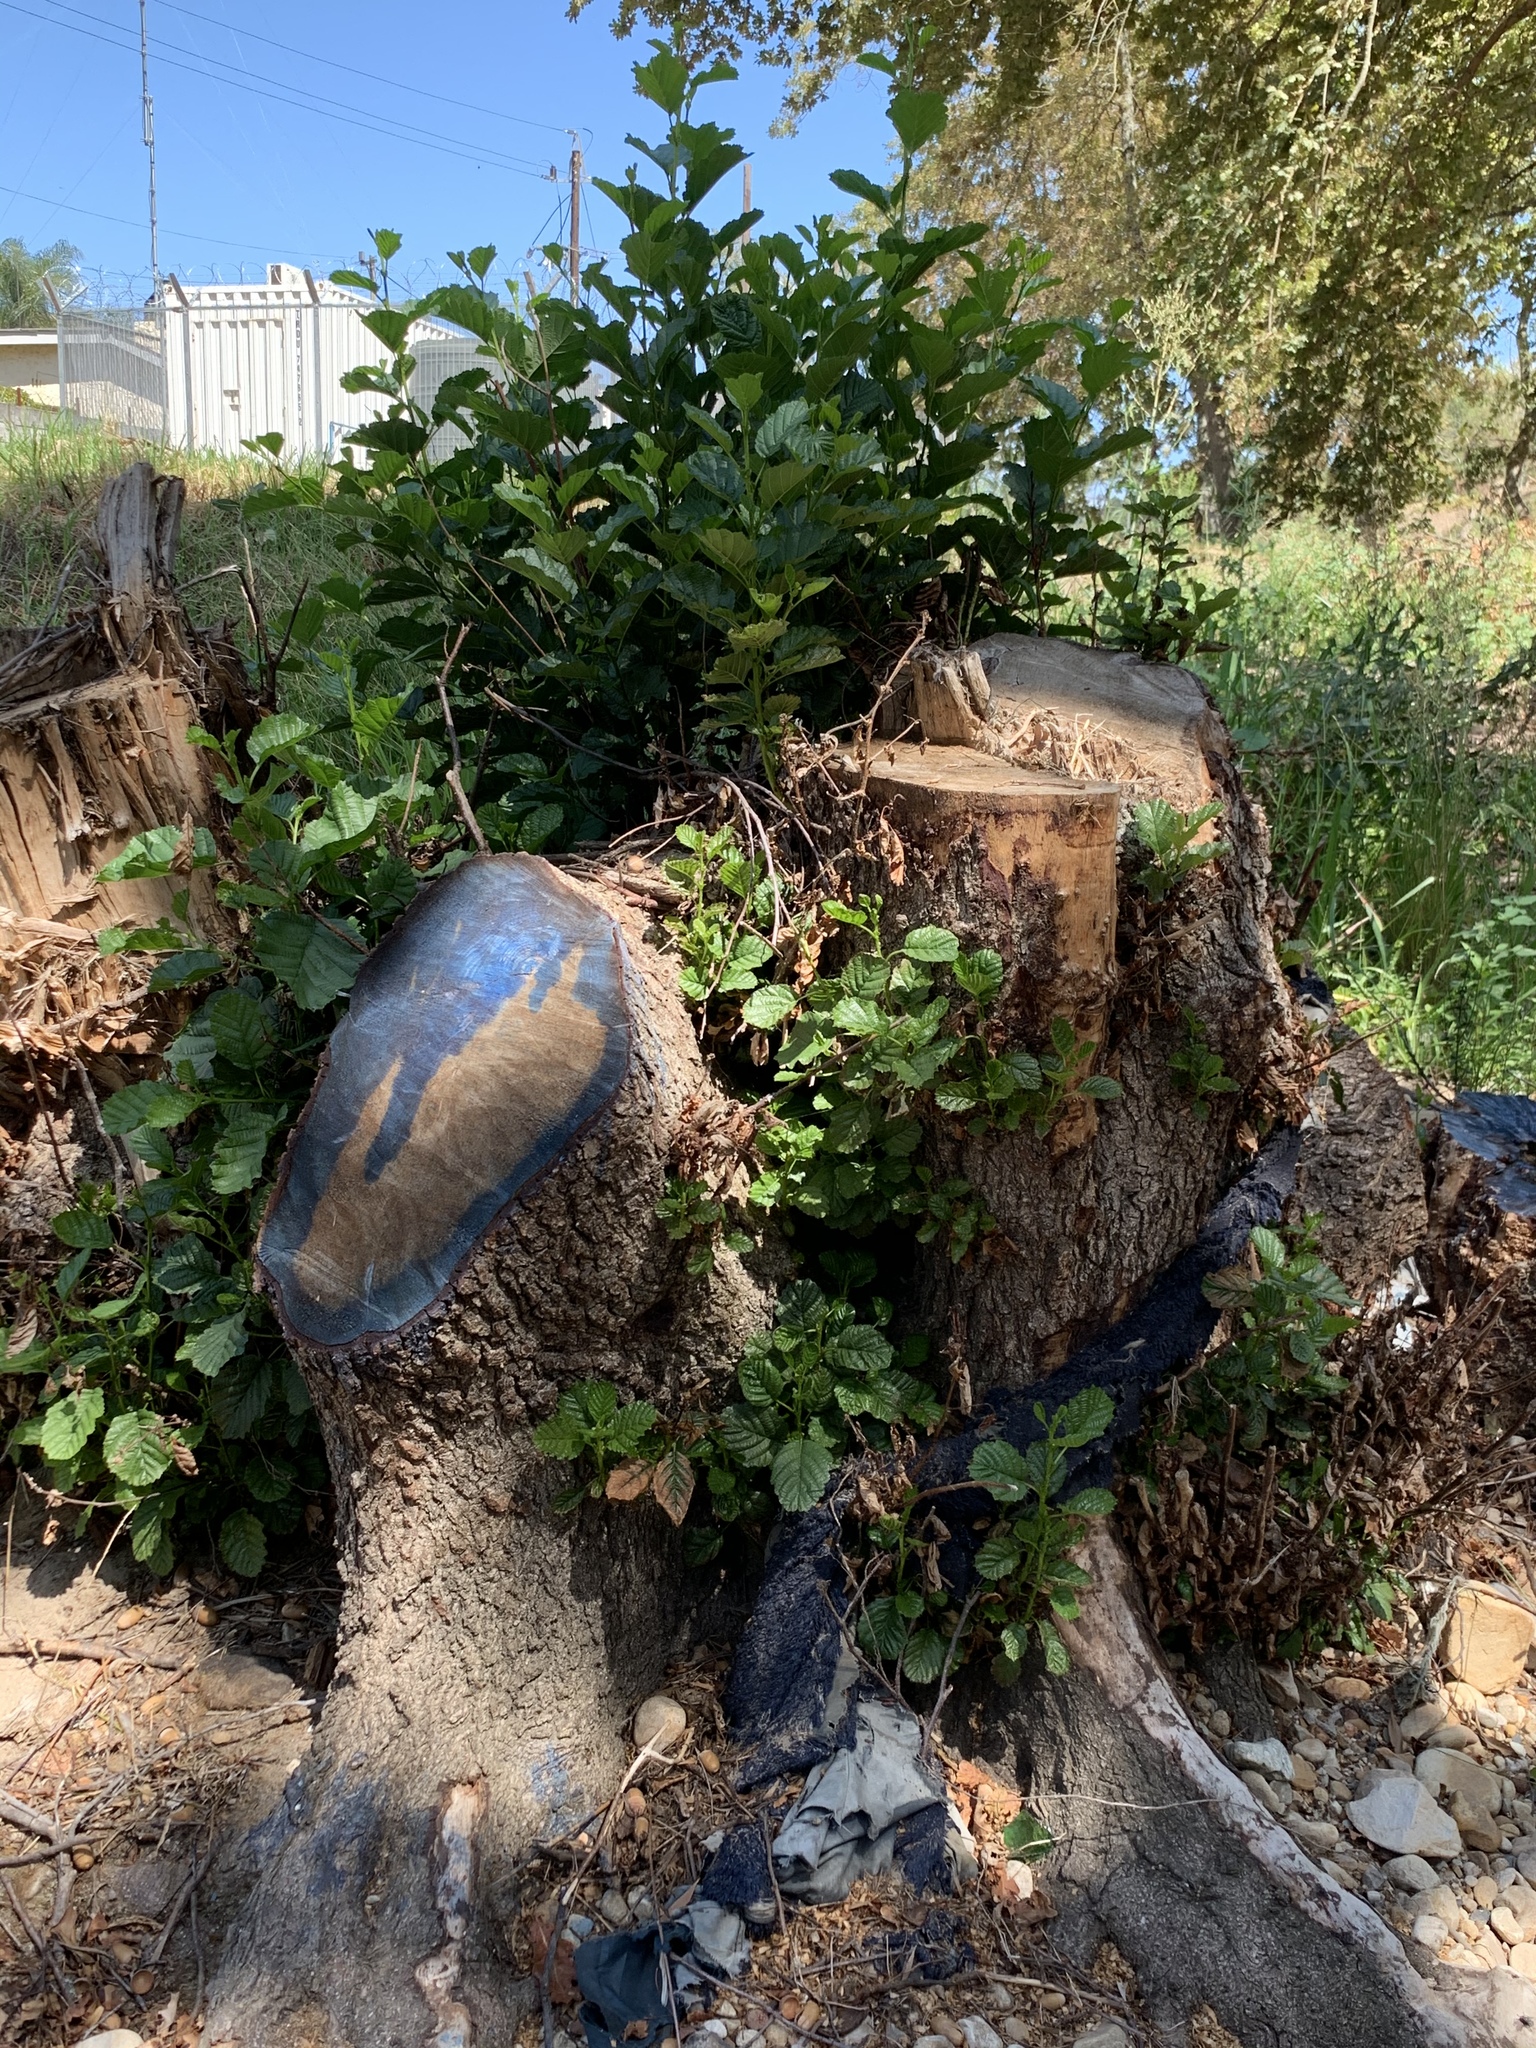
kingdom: Plantae
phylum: Tracheophyta
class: Magnoliopsida
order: Fagales
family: Betulaceae
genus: Alnus
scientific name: Alnus glutinosa
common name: Black alder
